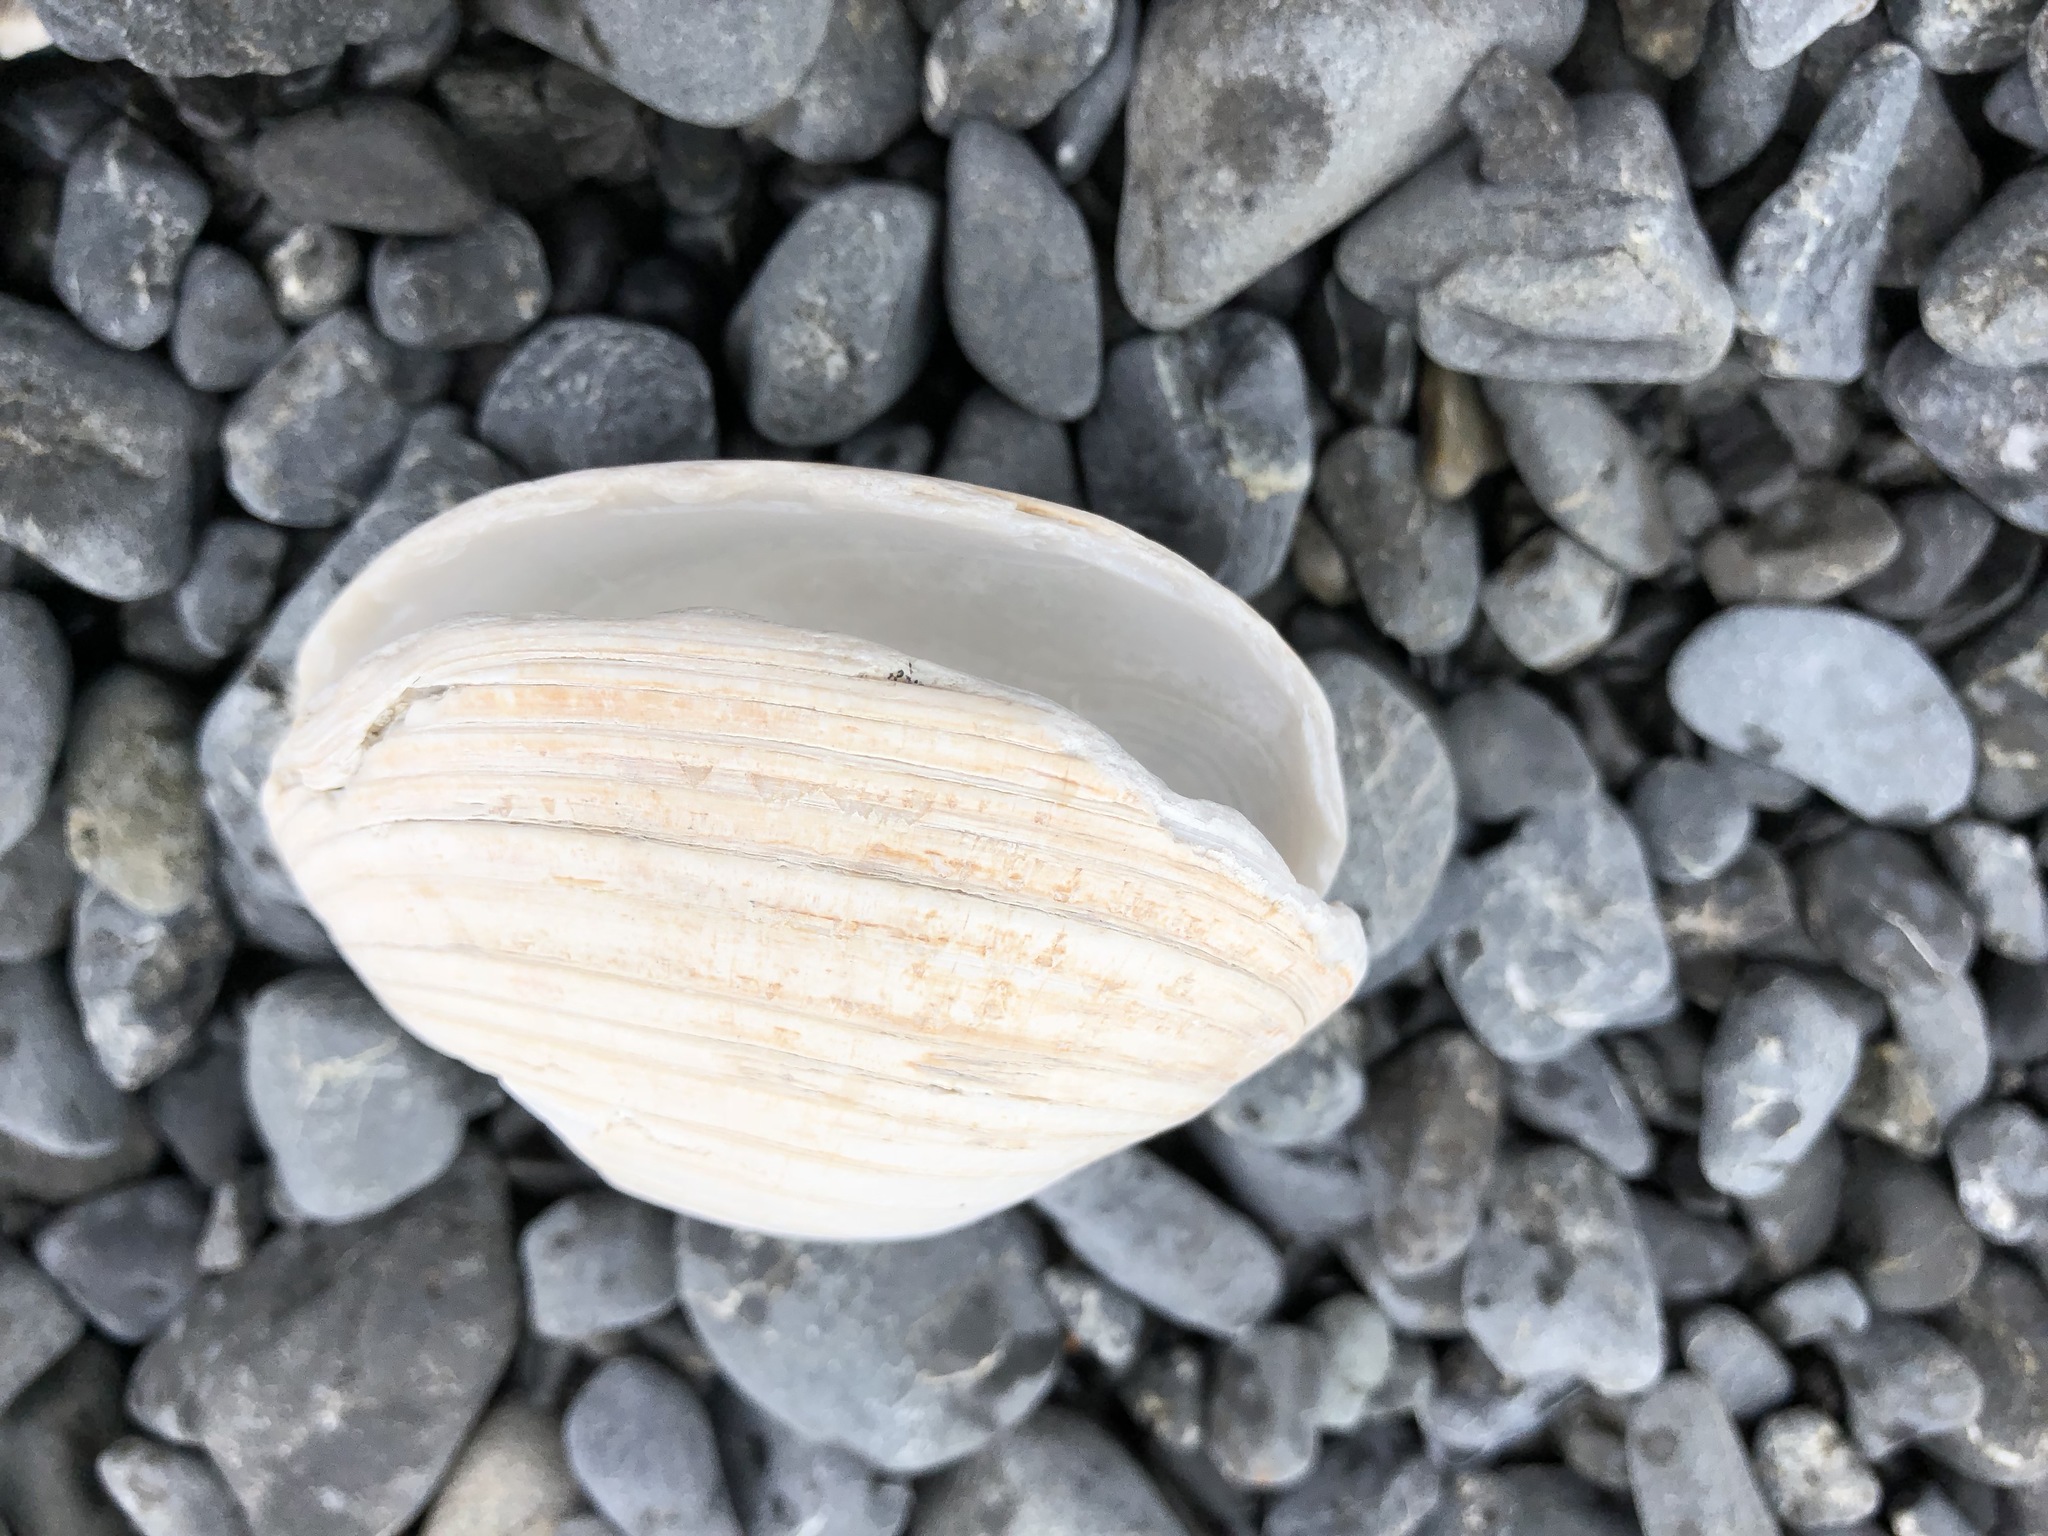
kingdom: Animalia
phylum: Mollusca
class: Bivalvia
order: Venerida
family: Veneridae
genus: Saxidomus
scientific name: Saxidomus gigantea
